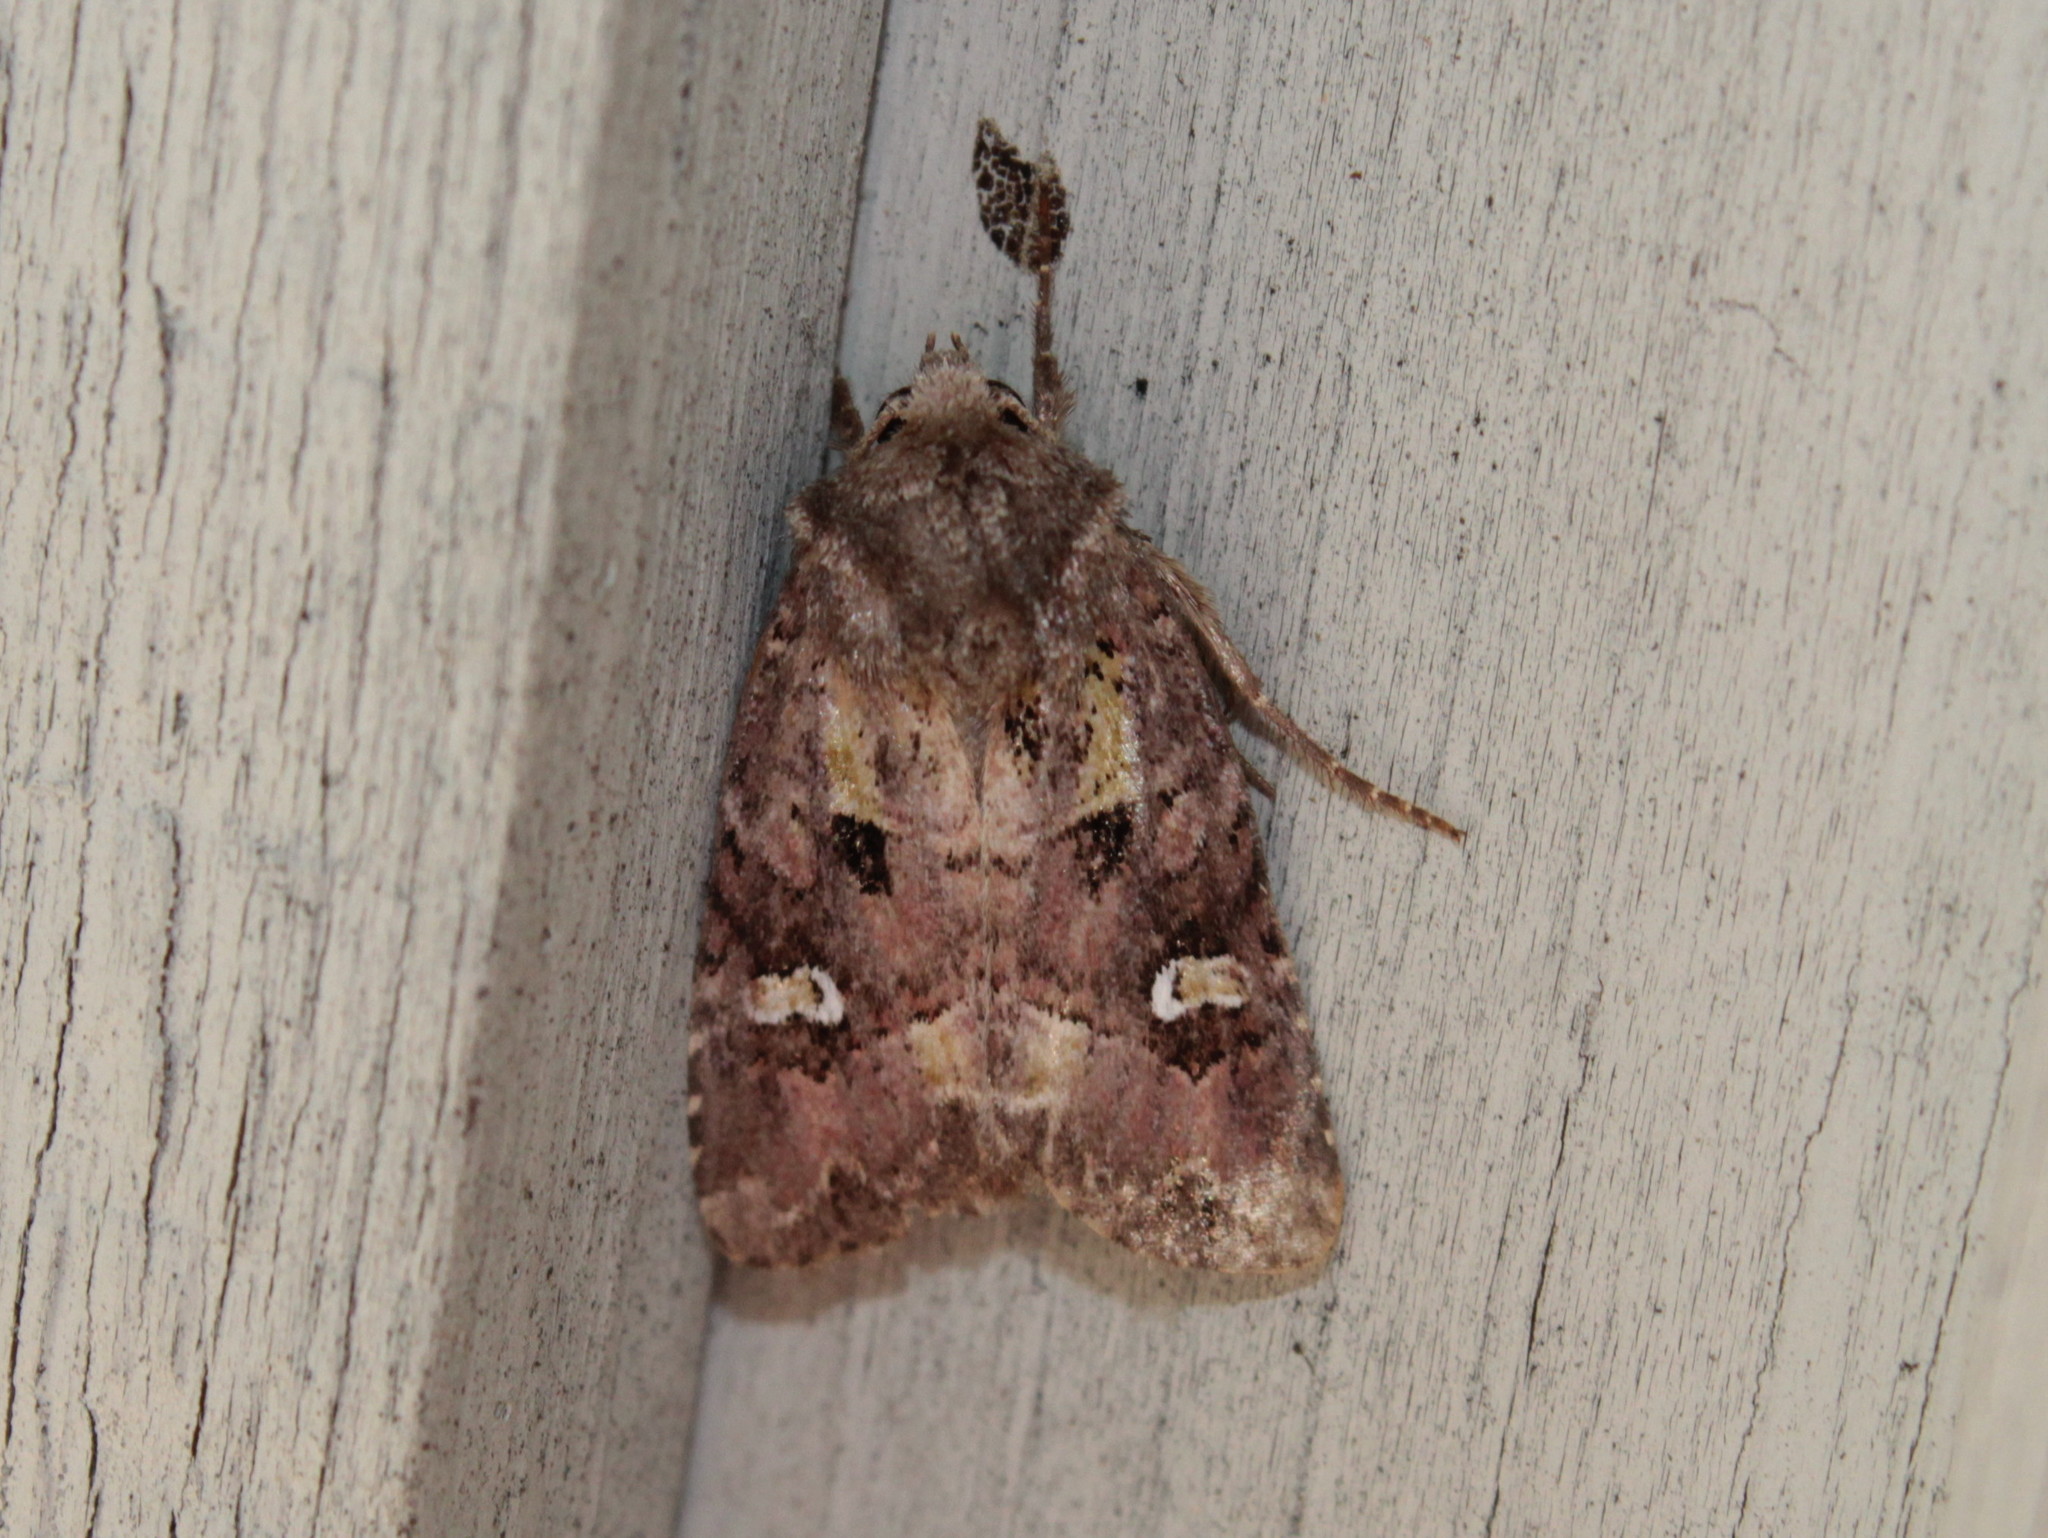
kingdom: Animalia
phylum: Arthropoda
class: Insecta
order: Lepidoptera
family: Noctuidae
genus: Lacinipolia
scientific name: Lacinipolia renigera
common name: Kidney-spotted minor
